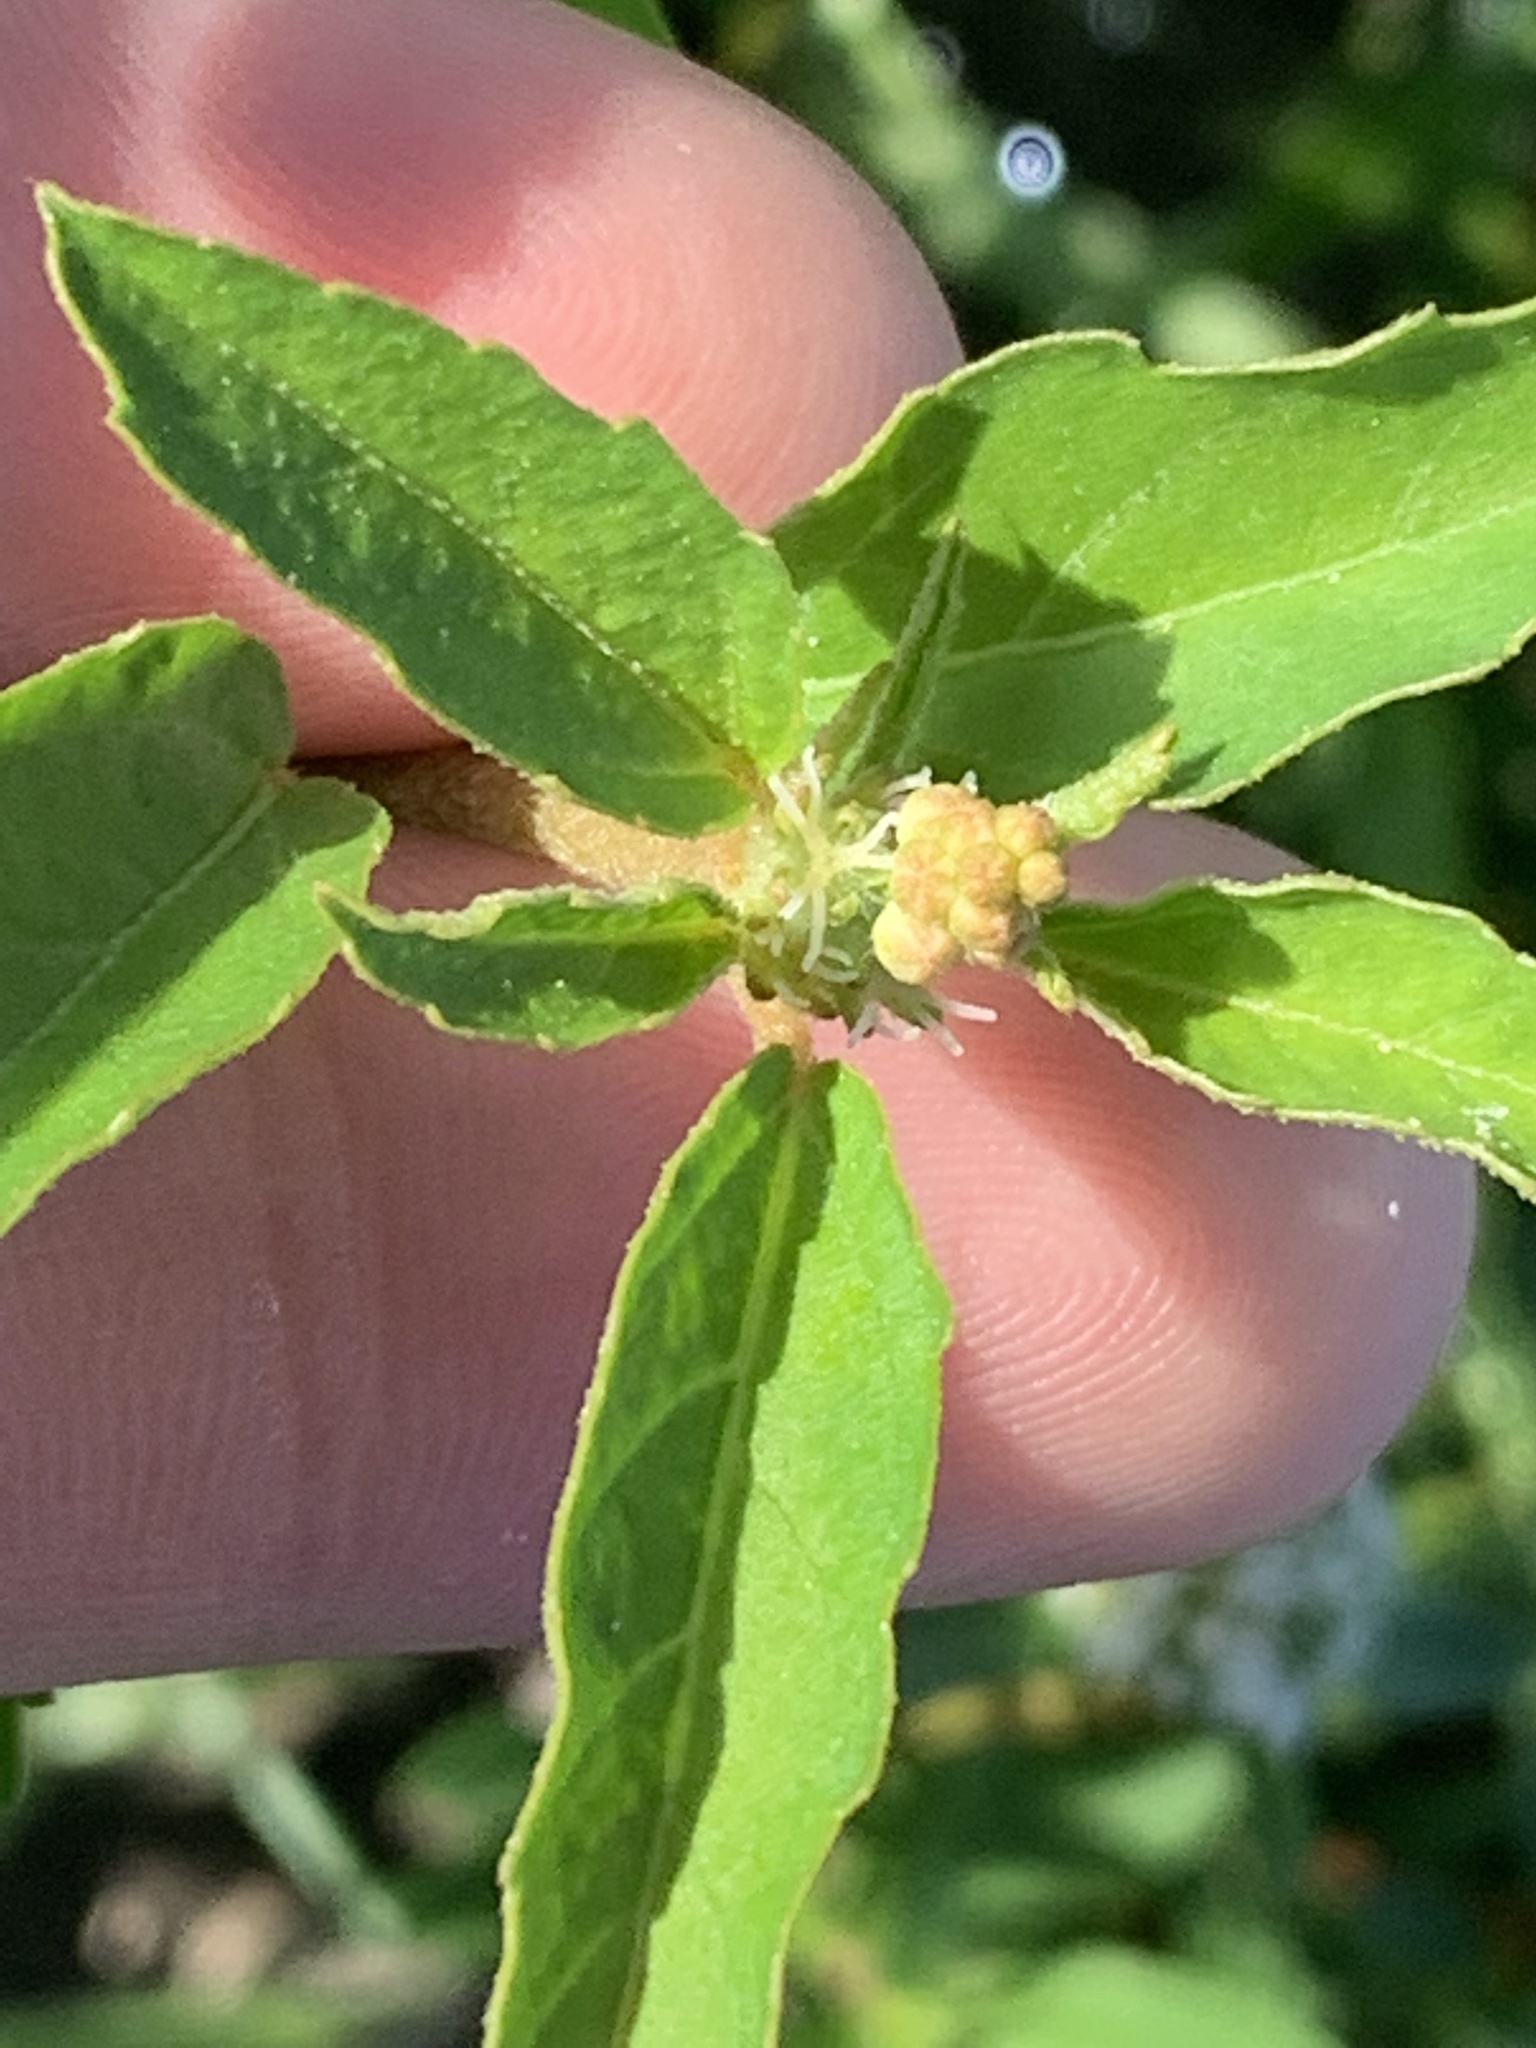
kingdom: Plantae
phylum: Tracheophyta
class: Magnoliopsida
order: Malpighiales
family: Euphorbiaceae
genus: Croton
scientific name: Croton glandulosus
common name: Tropic croton
